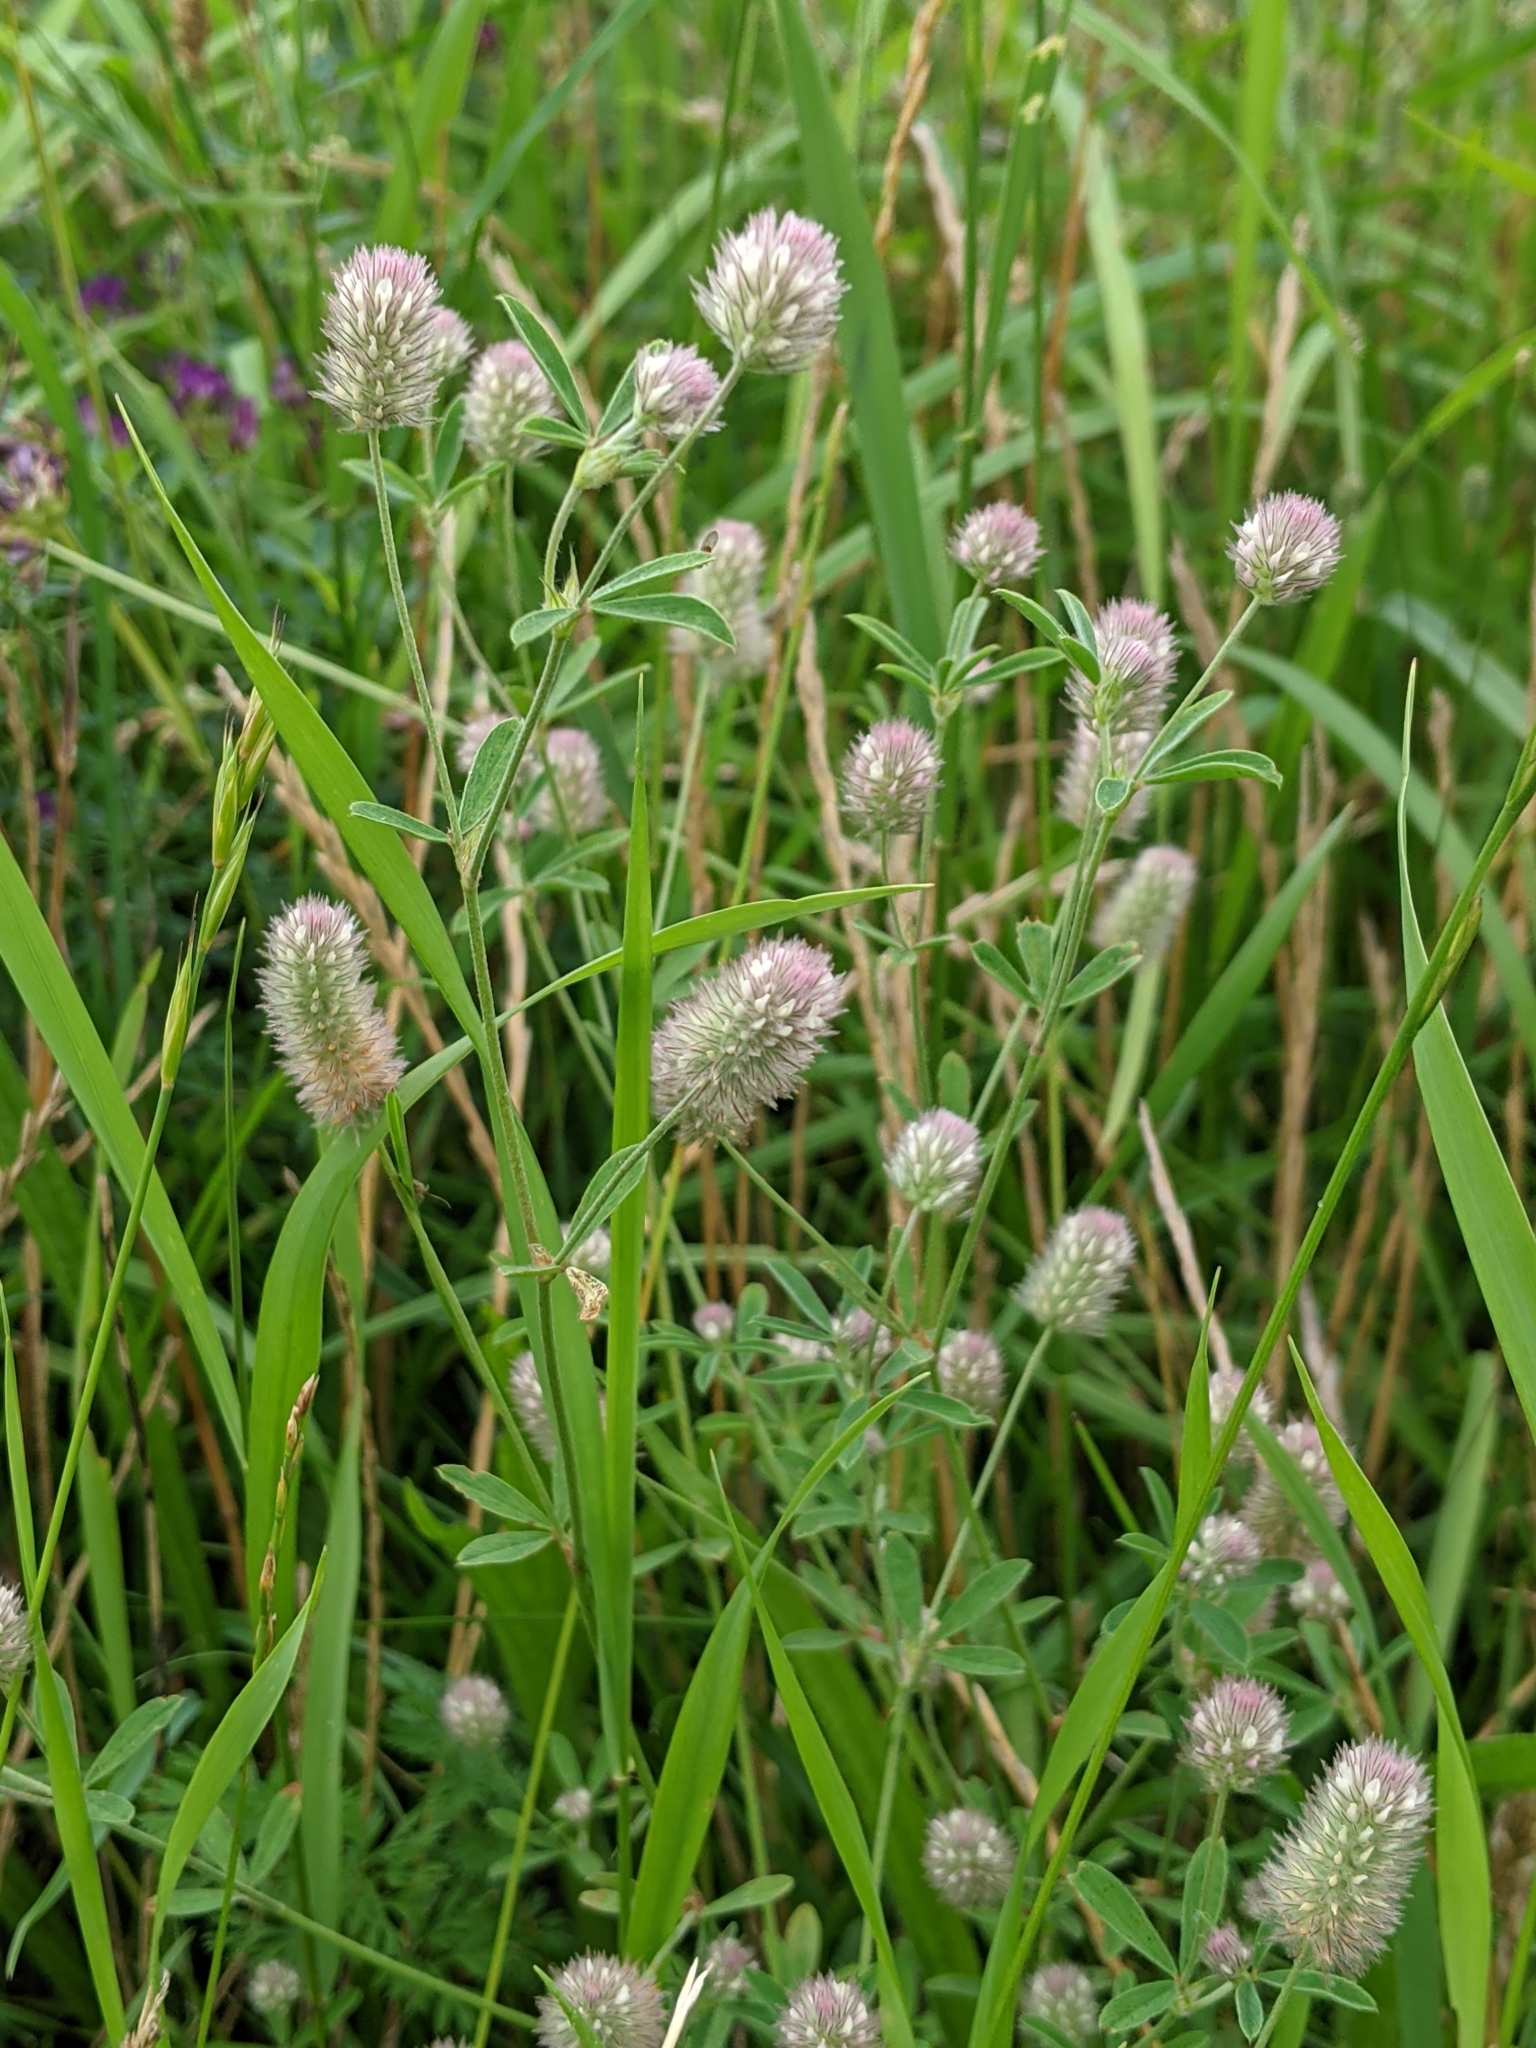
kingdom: Plantae
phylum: Tracheophyta
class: Magnoliopsida
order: Fabales
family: Fabaceae
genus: Trifolium
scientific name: Trifolium arvense
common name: Hare's-foot clover
